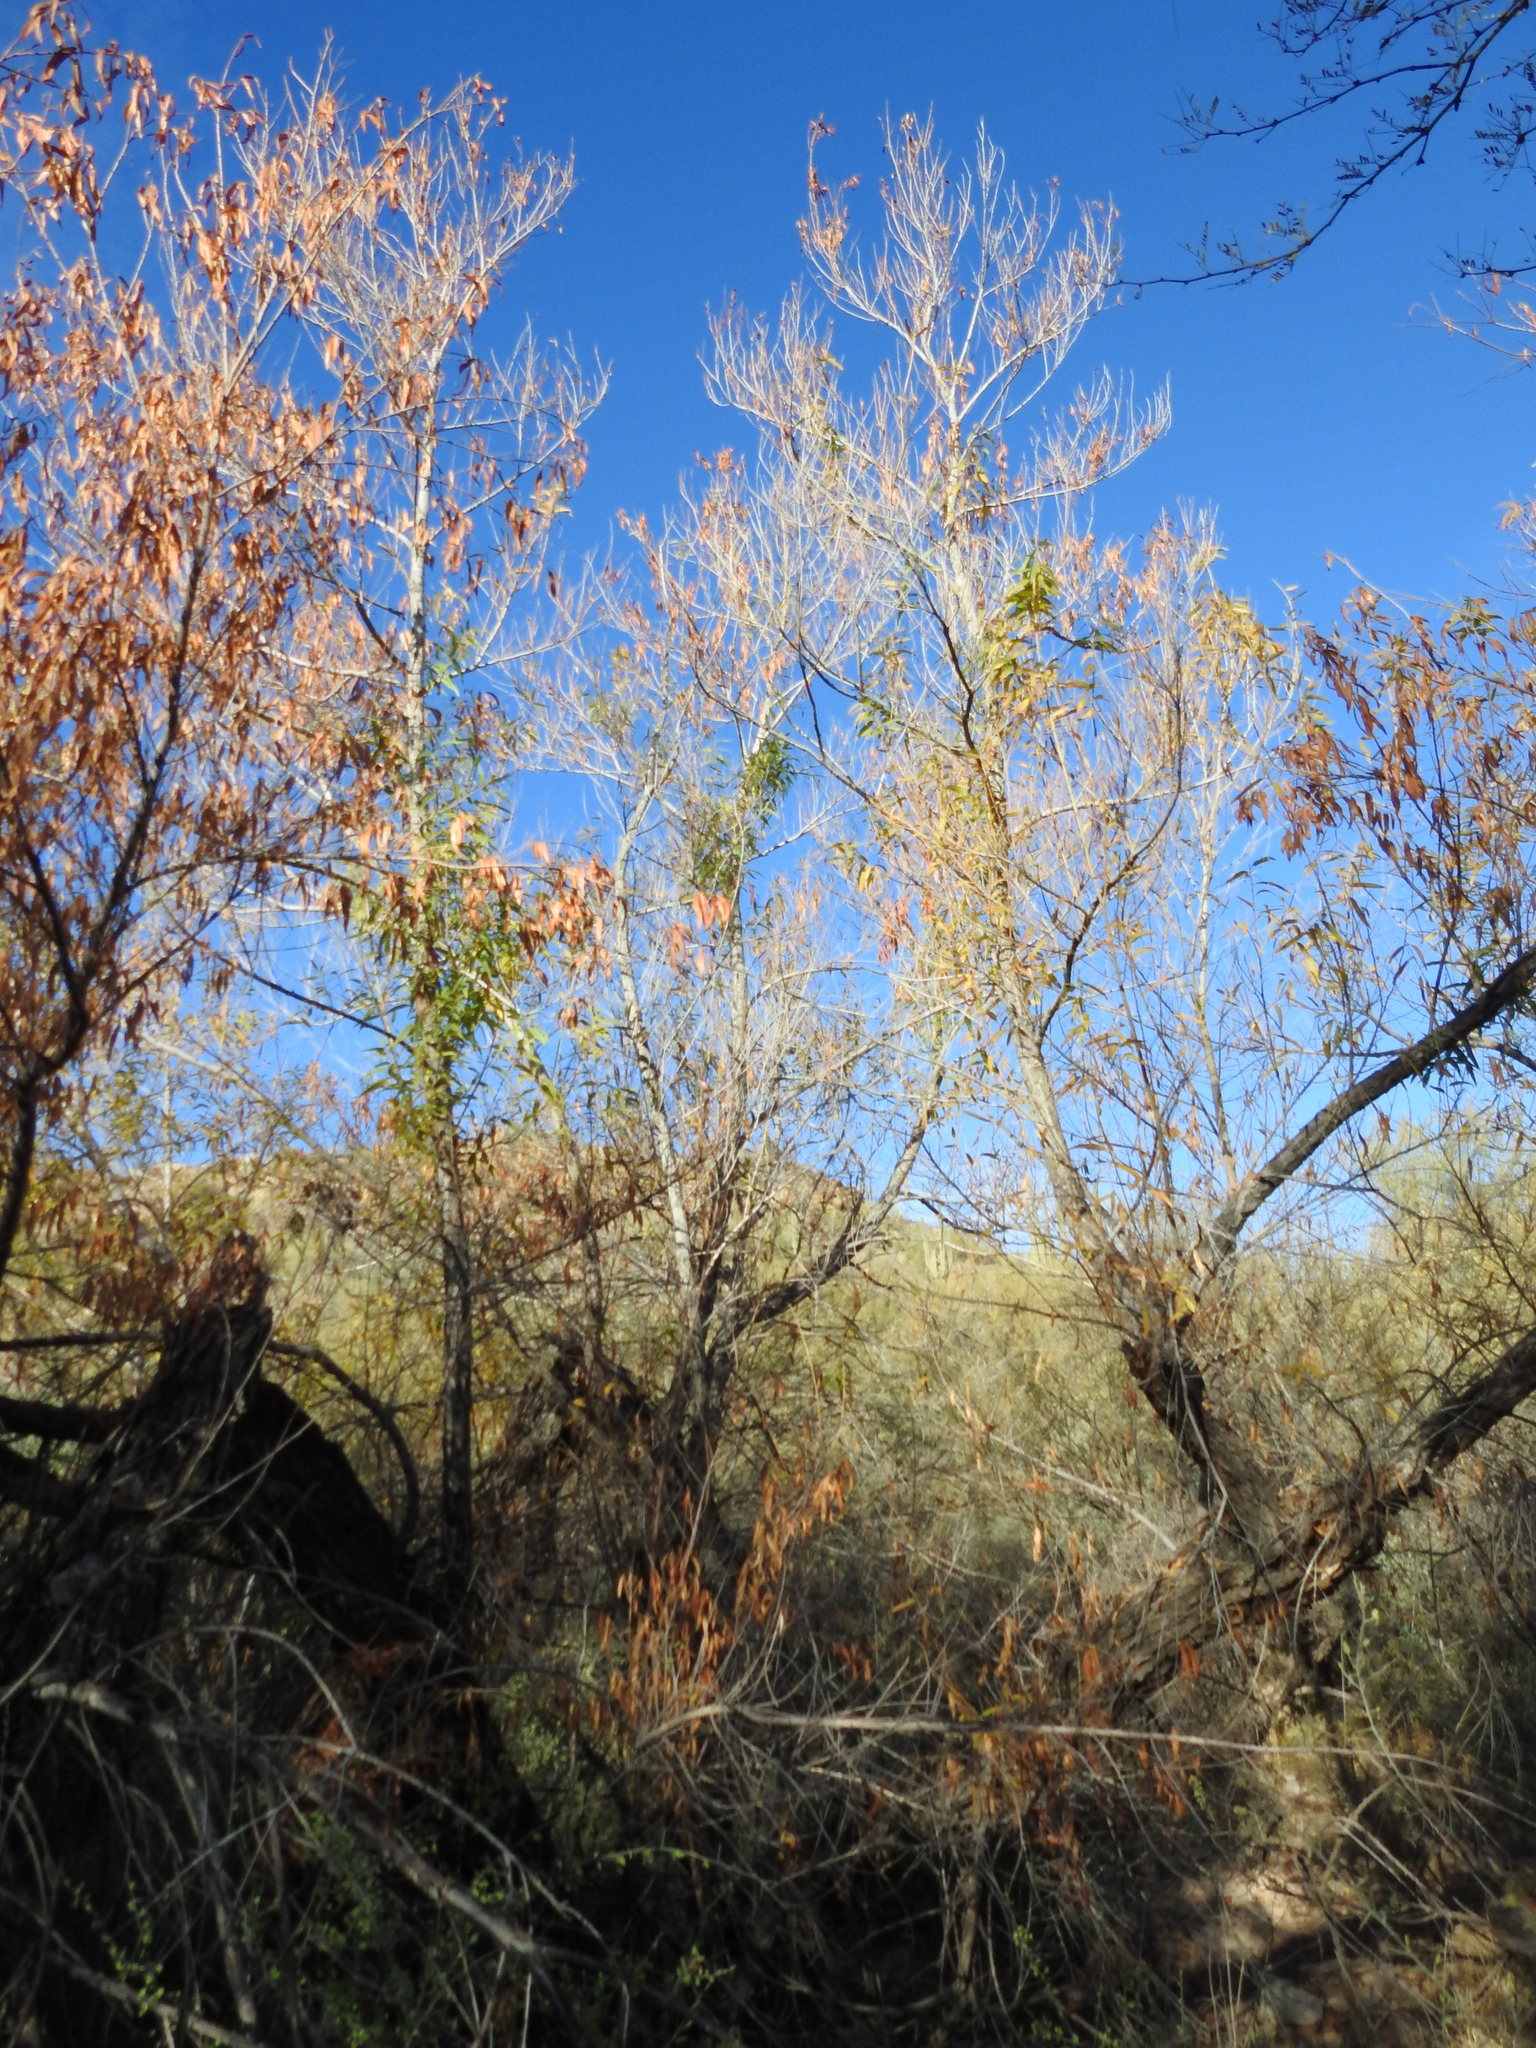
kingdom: Plantae
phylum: Tracheophyta
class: Magnoliopsida
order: Malpighiales
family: Salicaceae
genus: Salix
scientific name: Salix gooddingii
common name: Goodding's willow
